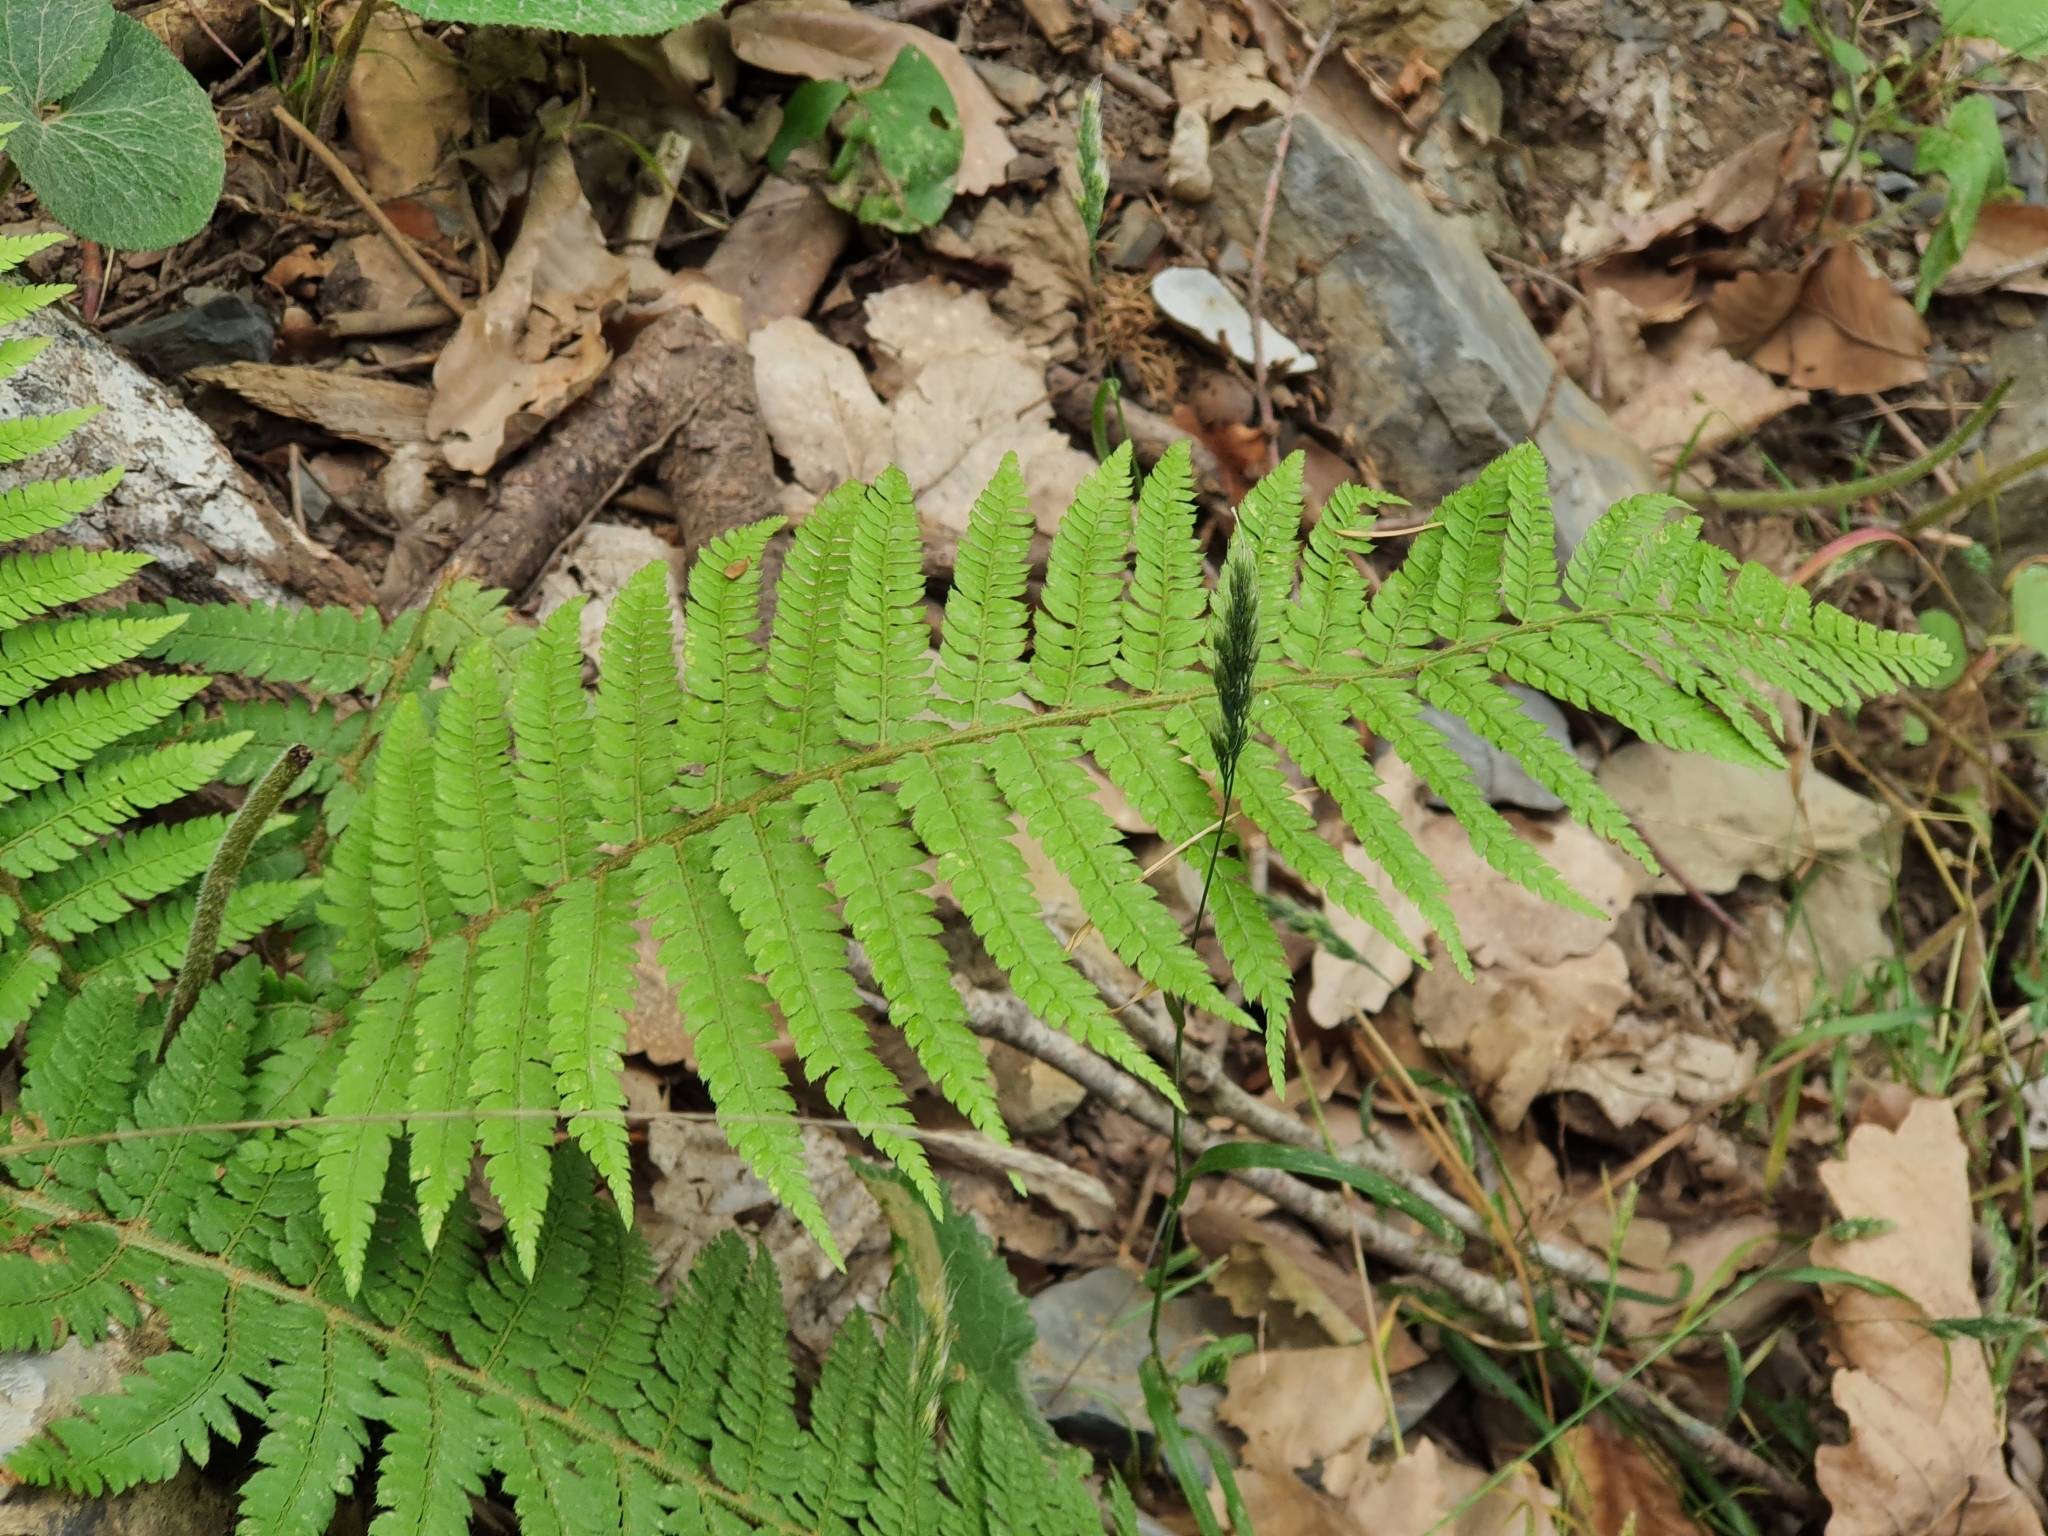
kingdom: Plantae
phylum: Tracheophyta
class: Polypodiopsida
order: Polypodiales
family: Dryopteridaceae
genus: Polystichum
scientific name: Polystichum setiferum
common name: Soft shield-fern
